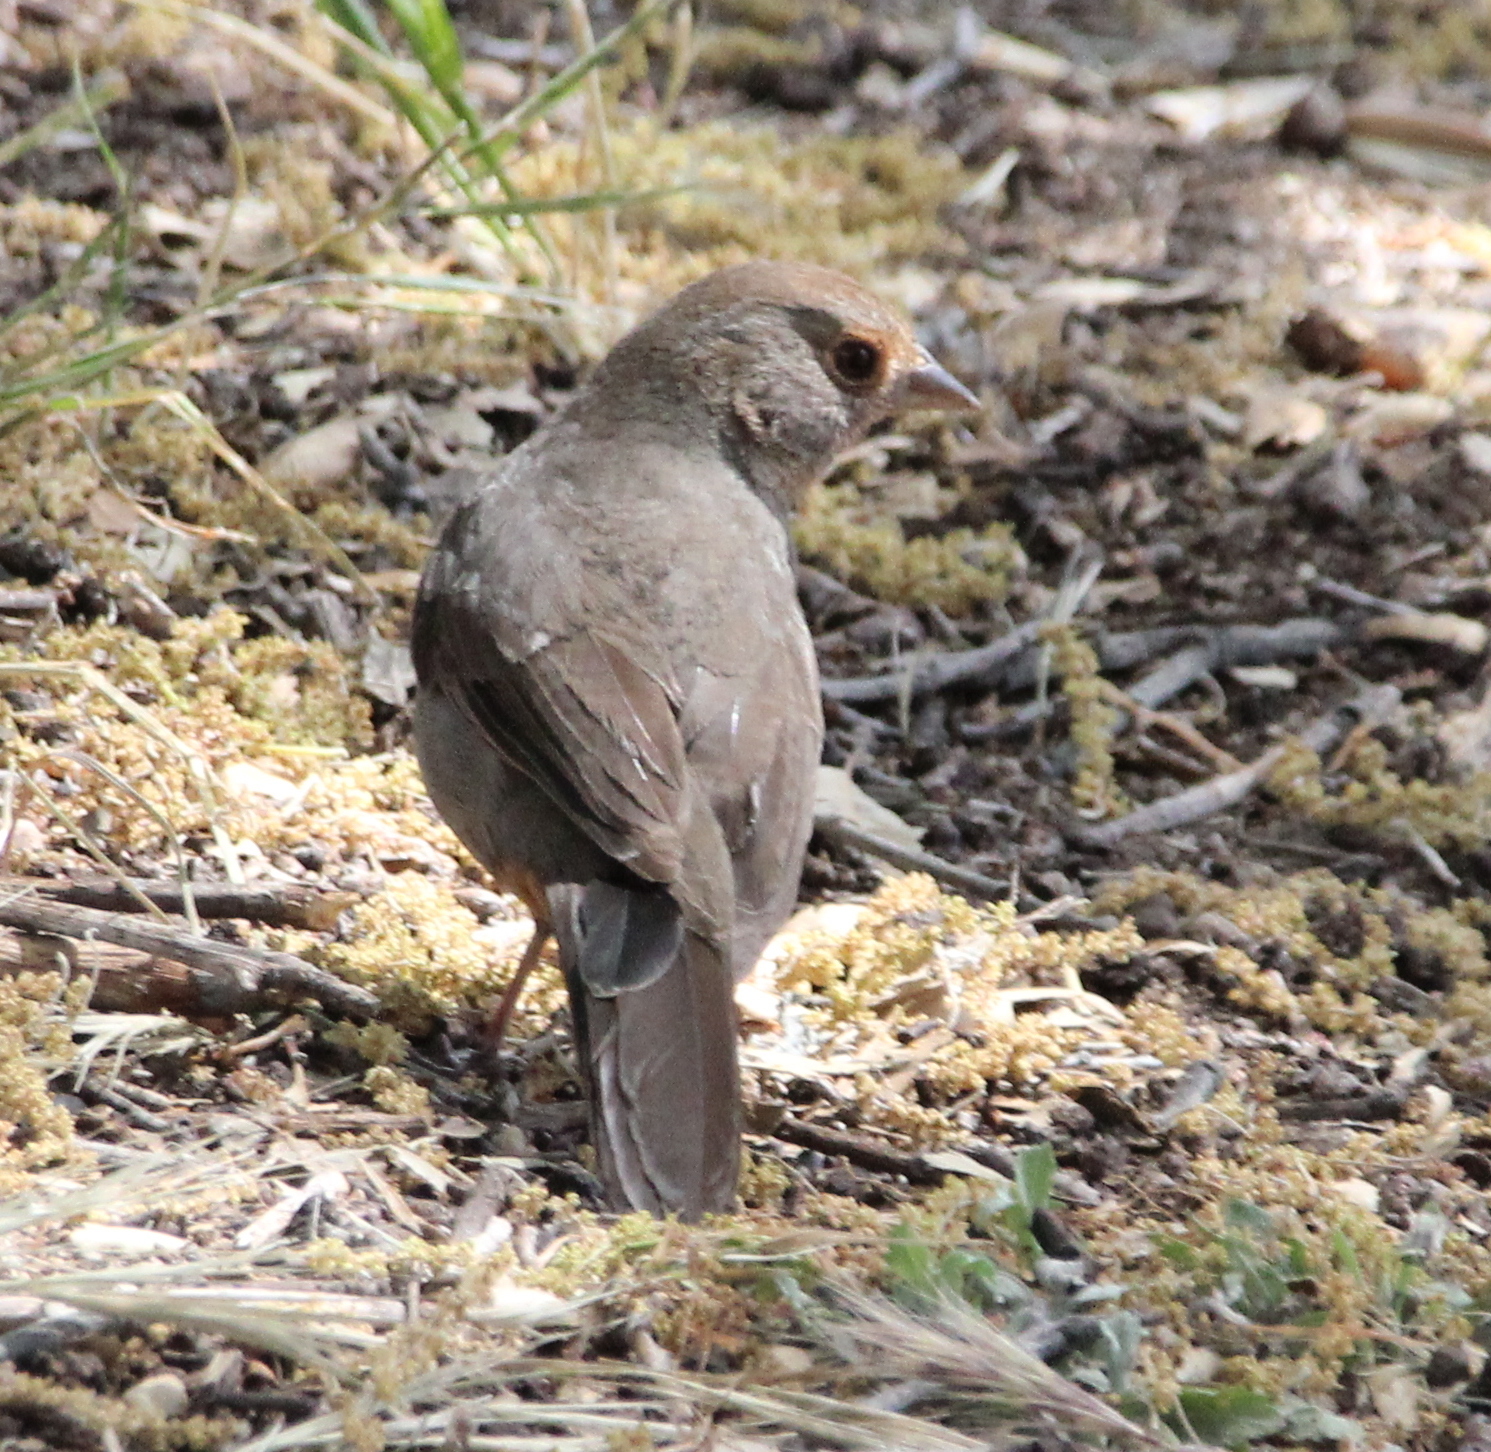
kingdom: Animalia
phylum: Chordata
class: Aves
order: Passeriformes
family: Passerellidae
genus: Melozone
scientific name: Melozone crissalis
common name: California towhee
